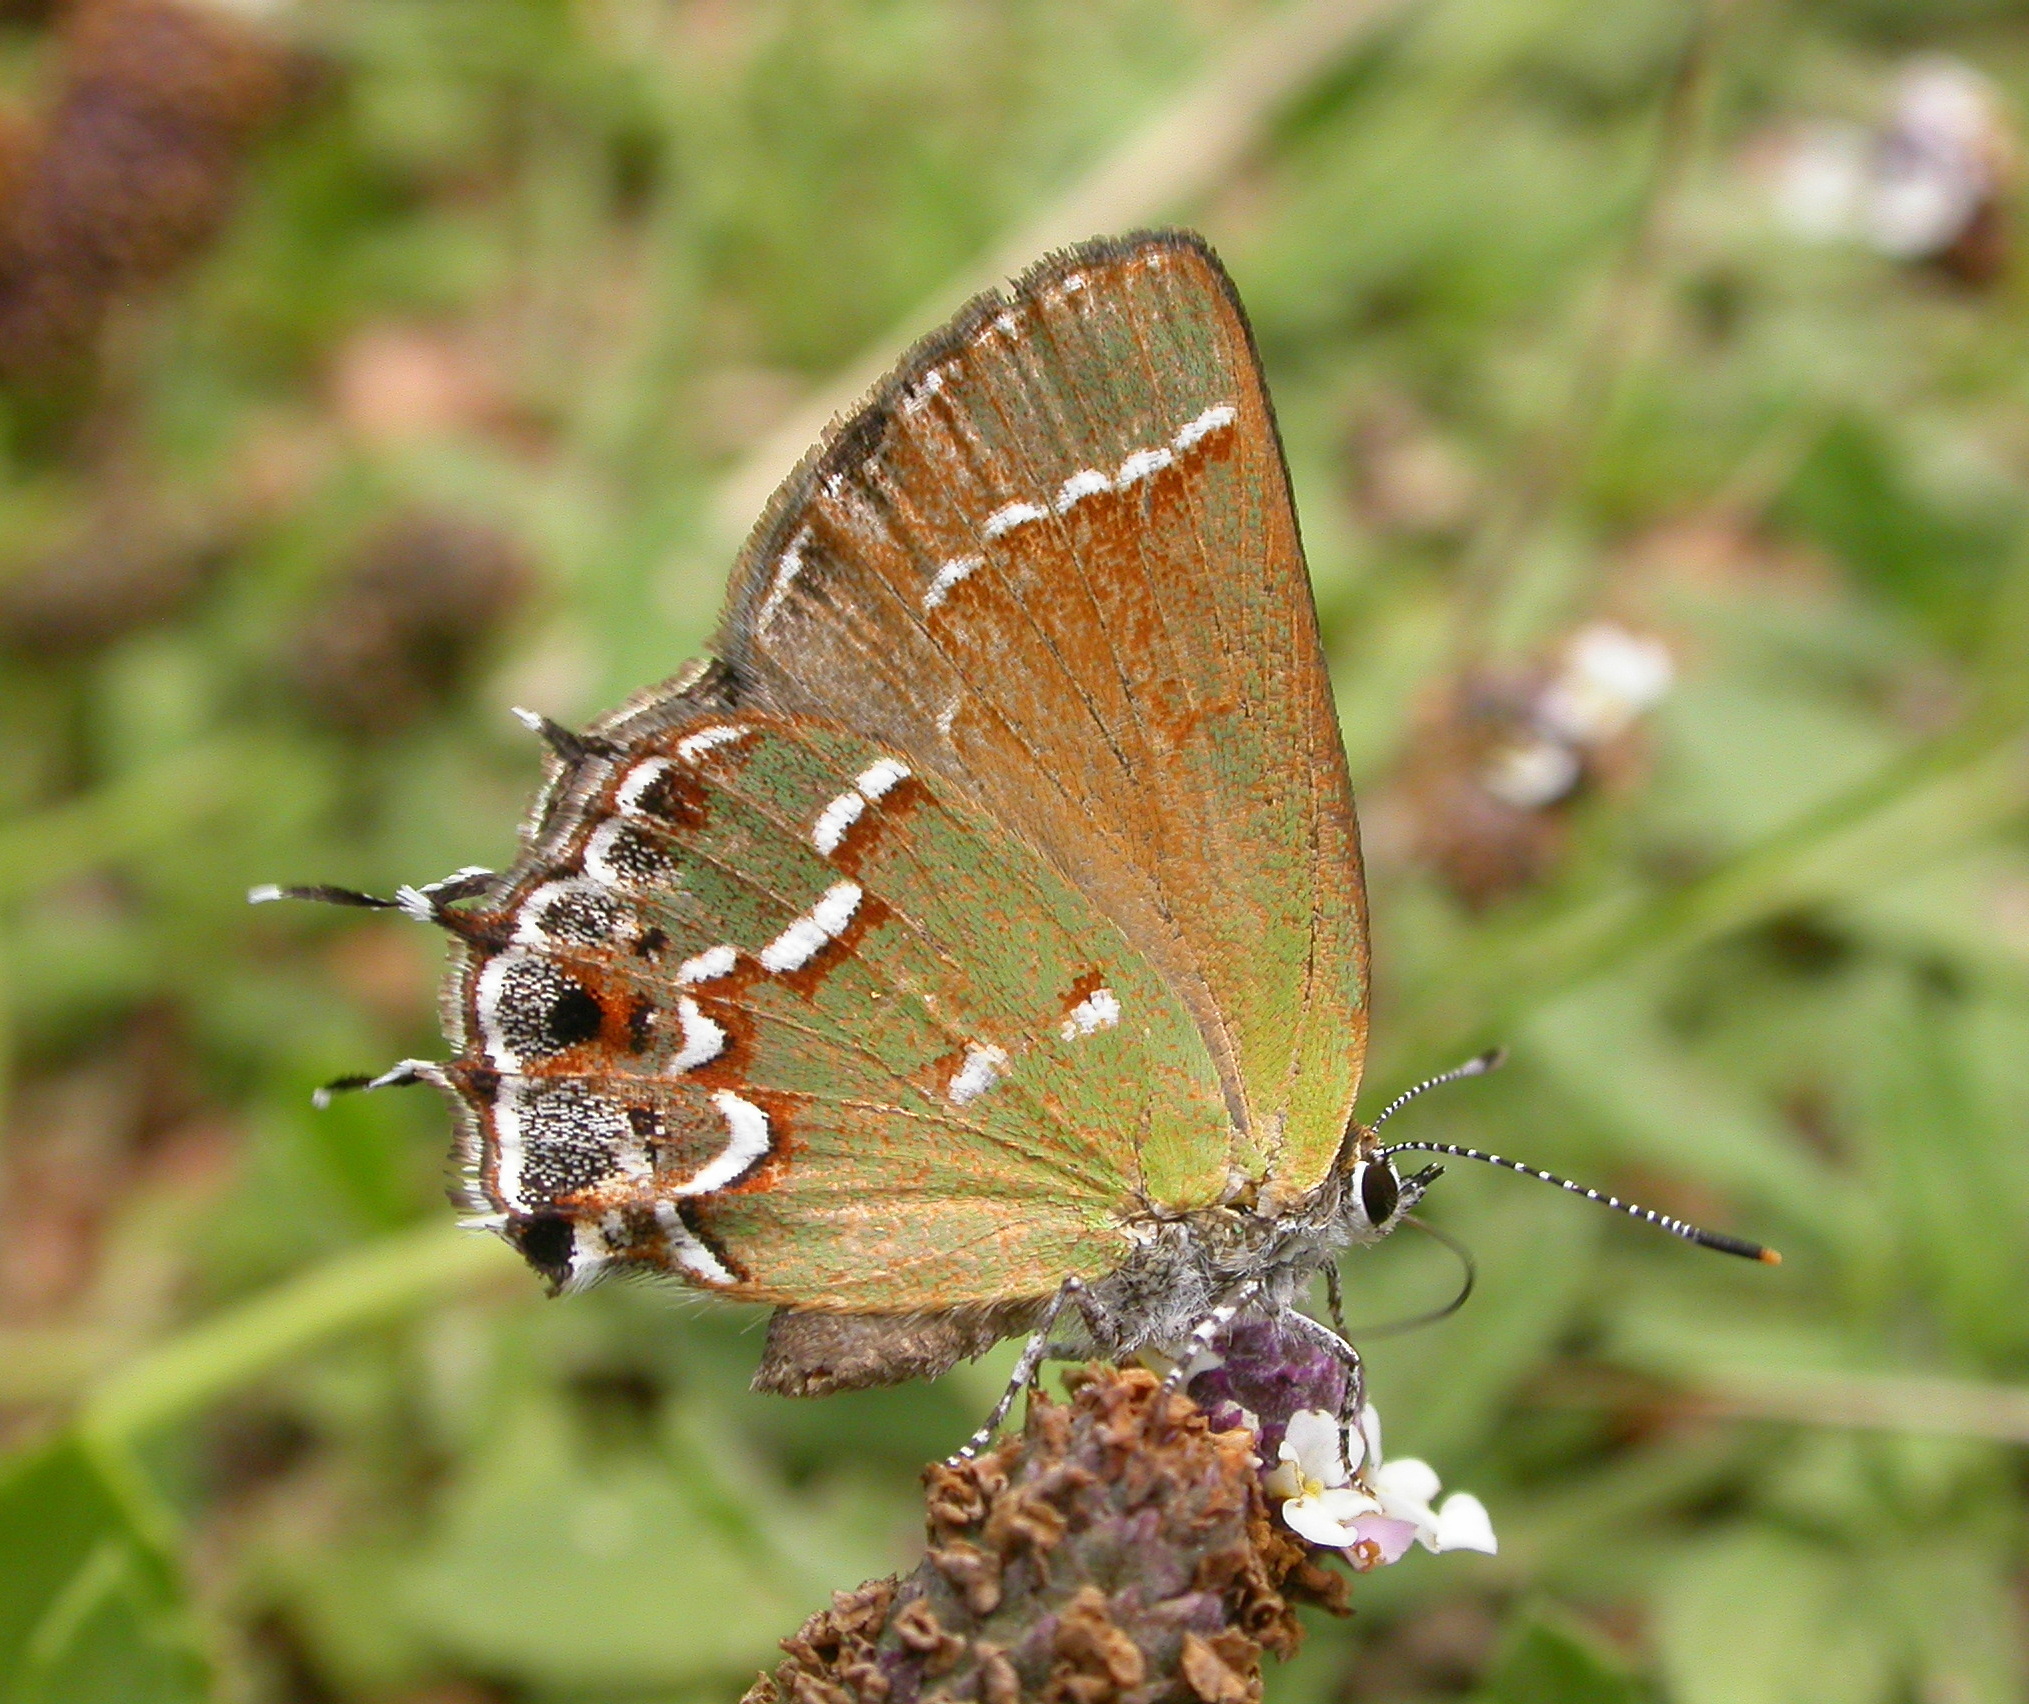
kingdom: Animalia
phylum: Arthropoda
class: Insecta
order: Lepidoptera
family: Lycaenidae
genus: Mitoura
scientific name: Mitoura gryneus
